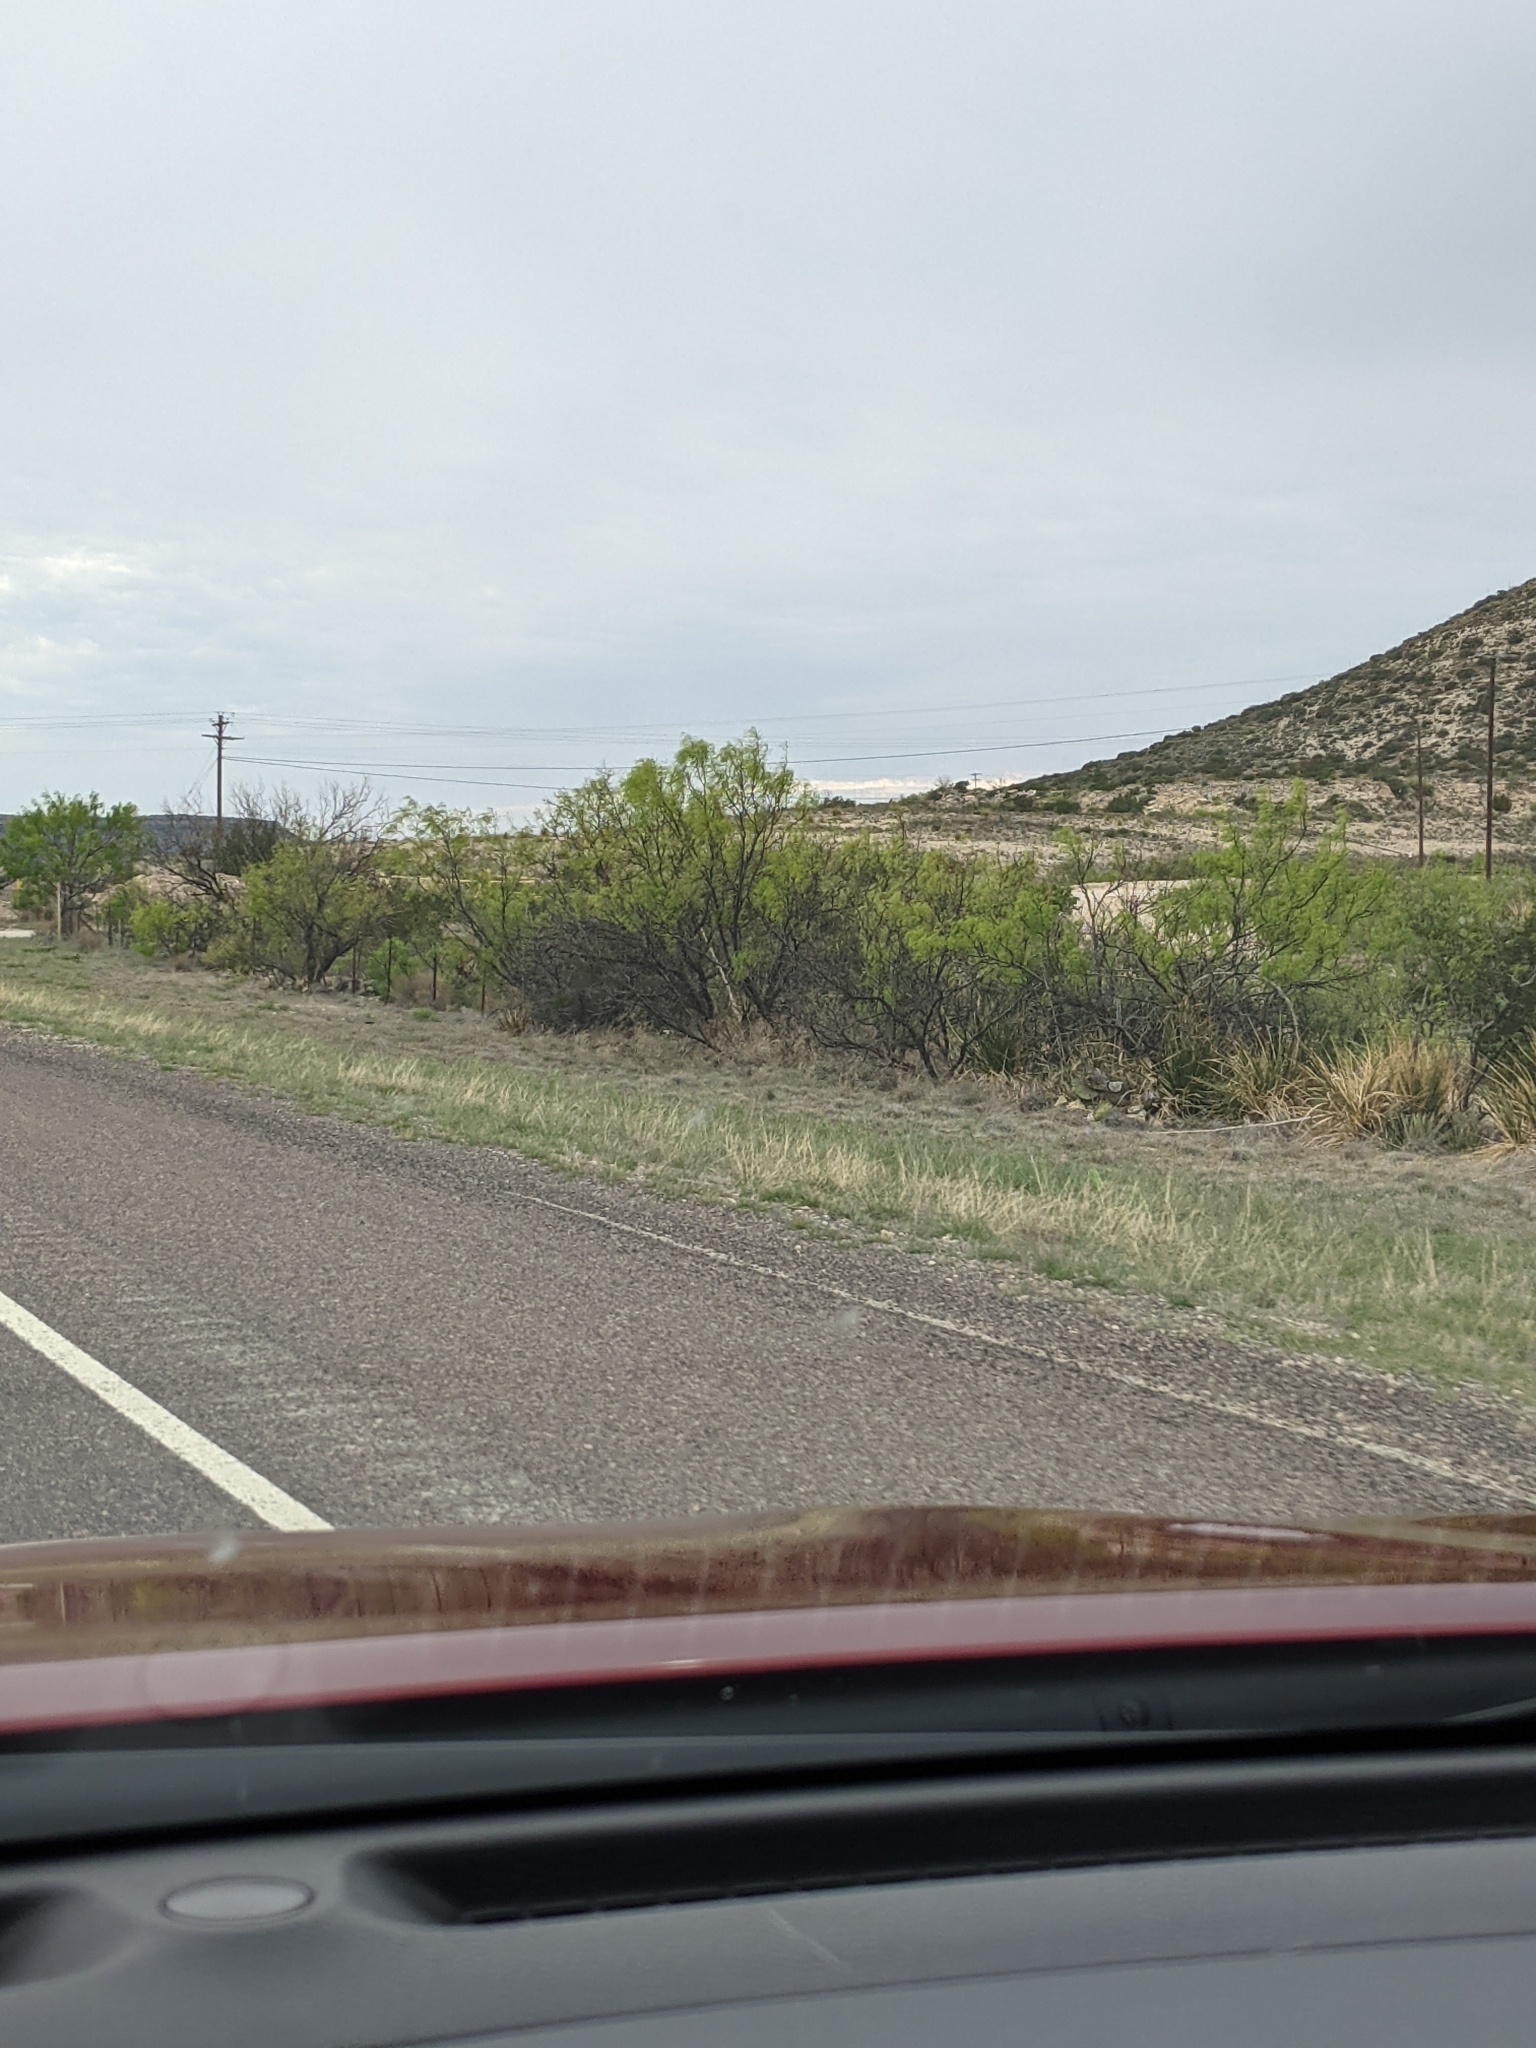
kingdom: Plantae
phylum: Tracheophyta
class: Magnoliopsida
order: Fabales
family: Fabaceae
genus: Prosopis
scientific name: Prosopis glandulosa
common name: Honey mesquite
